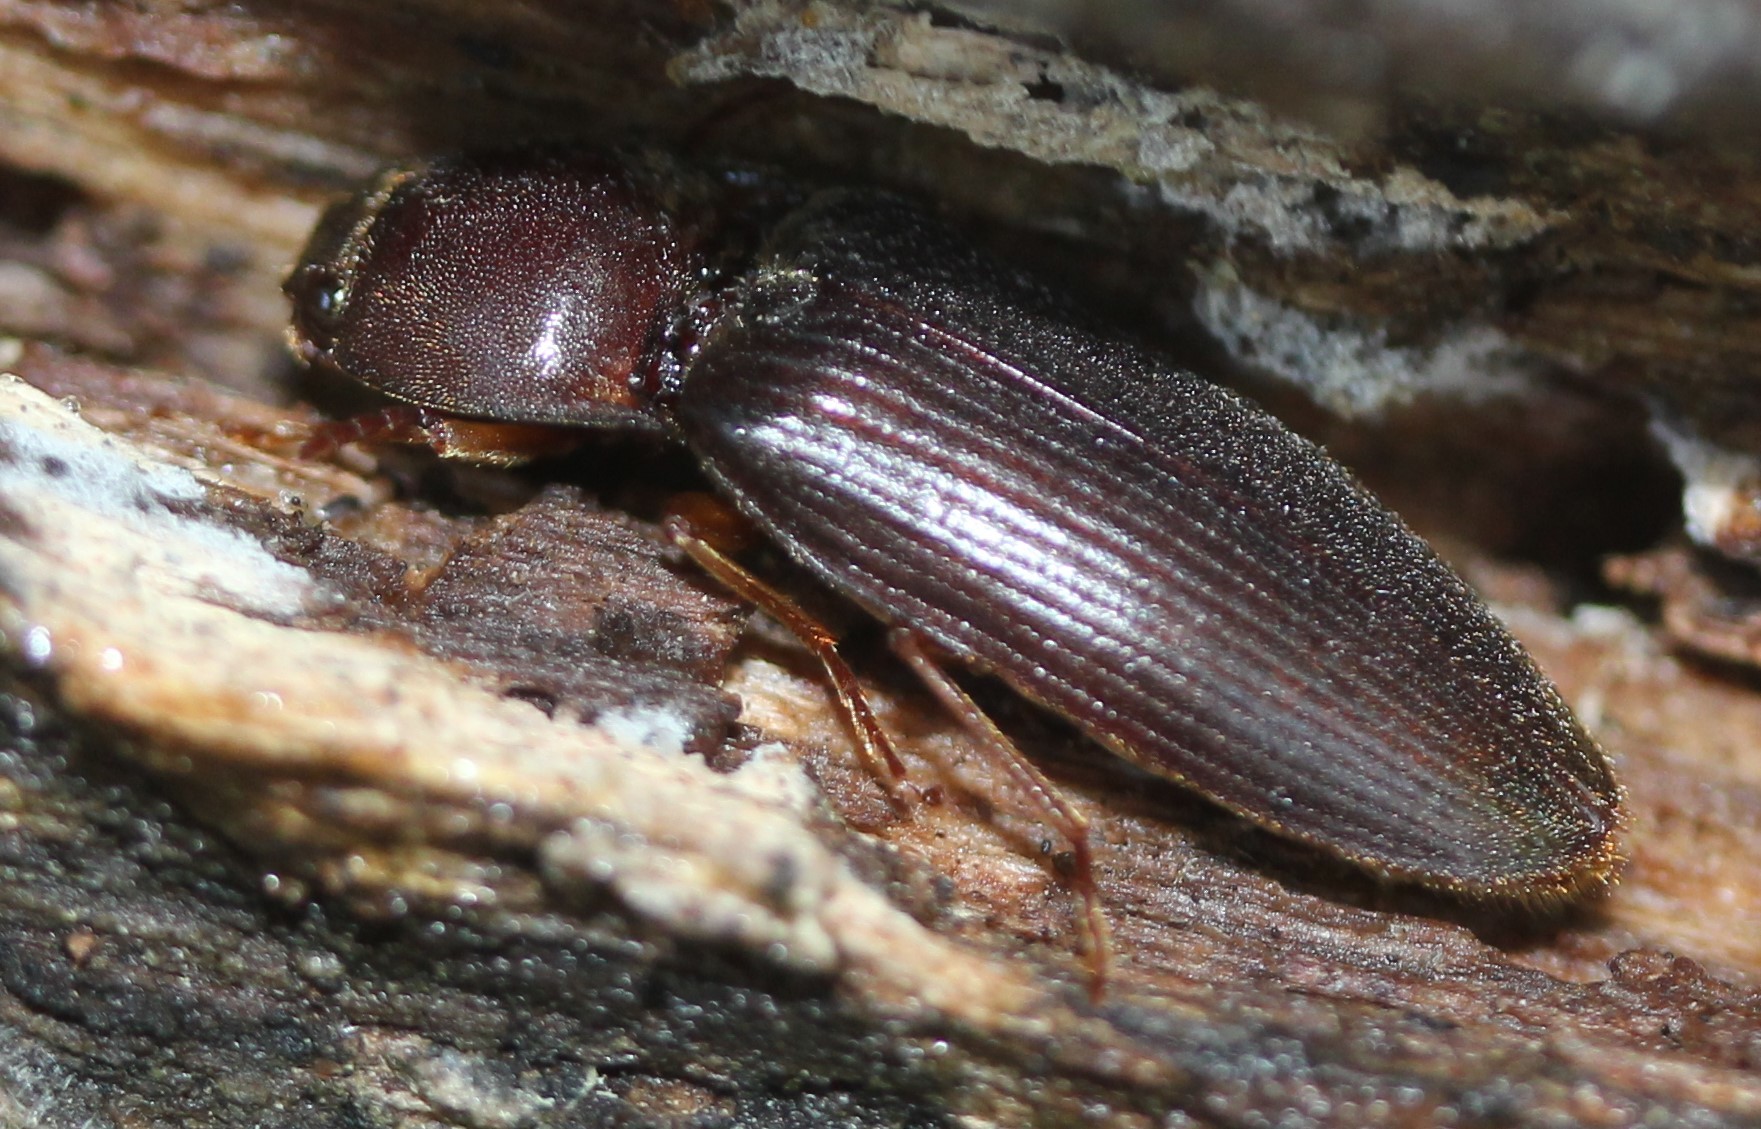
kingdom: Animalia
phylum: Arthropoda
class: Insecta
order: Coleoptera
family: Elateridae
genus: Hemicrepidius
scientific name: Hemicrepidius
